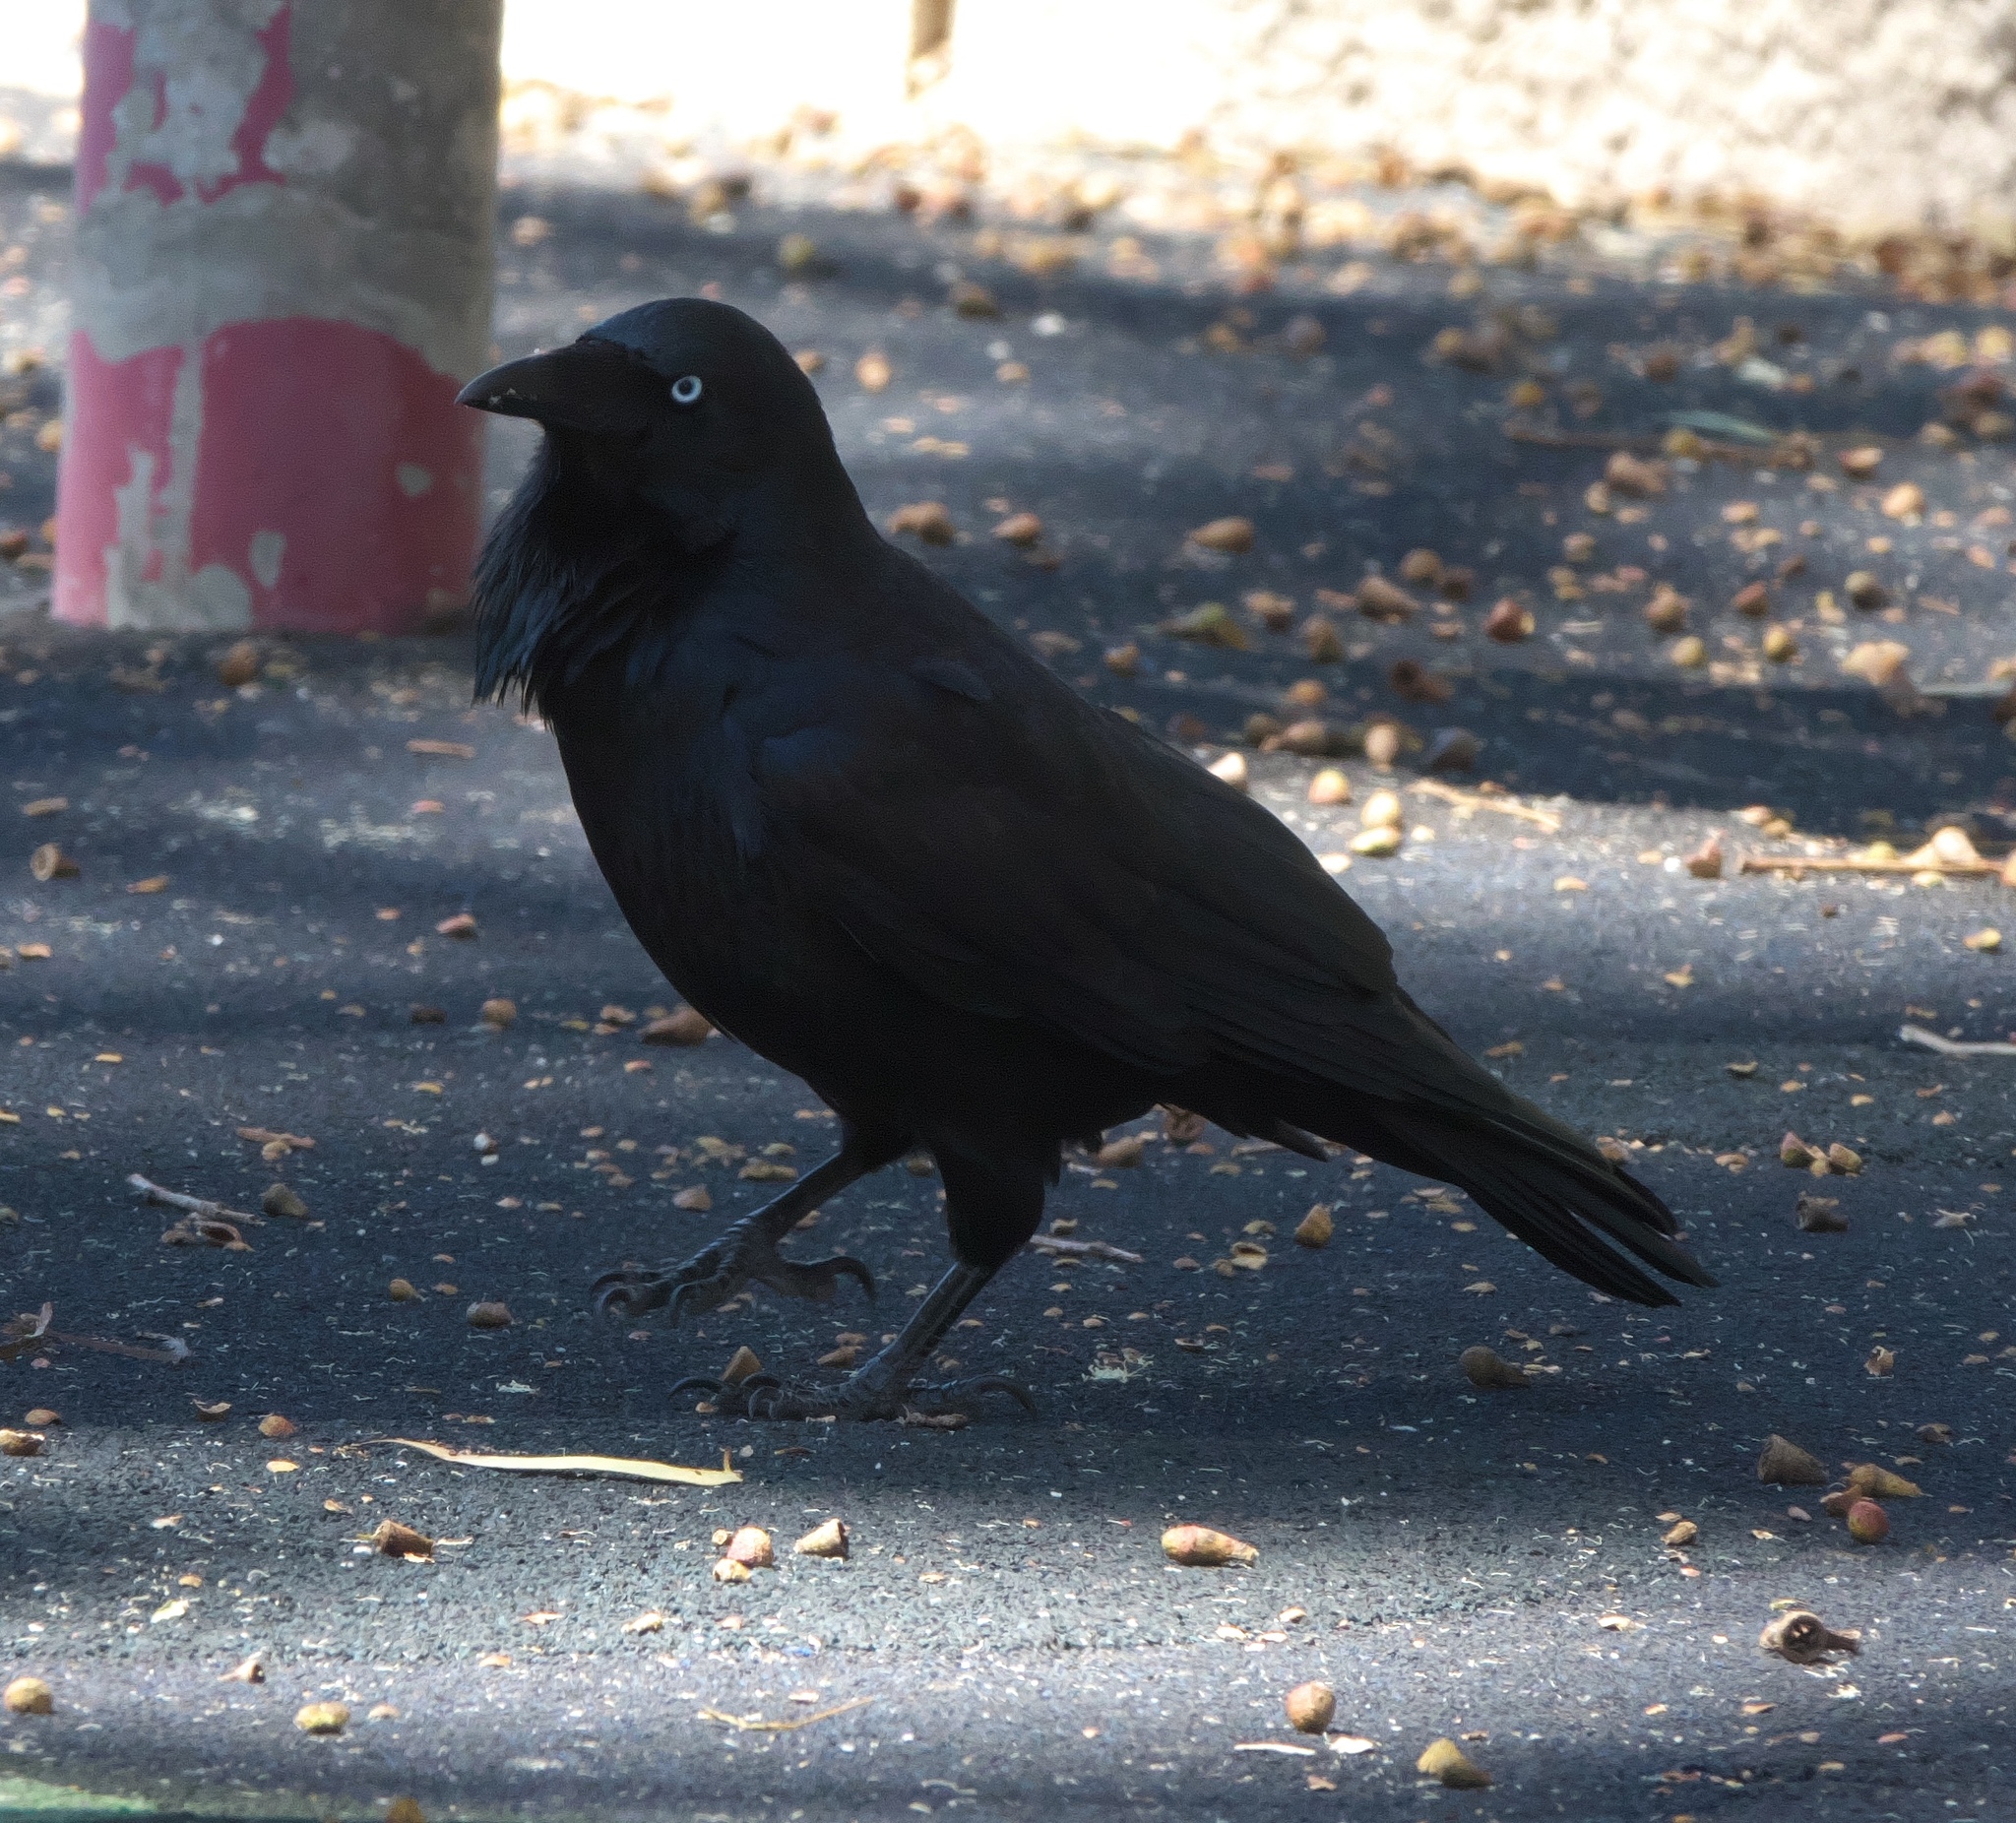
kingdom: Animalia
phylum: Chordata
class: Aves
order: Passeriformes
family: Corvidae
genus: Corvus
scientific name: Corvus coronoides
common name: Australian raven
